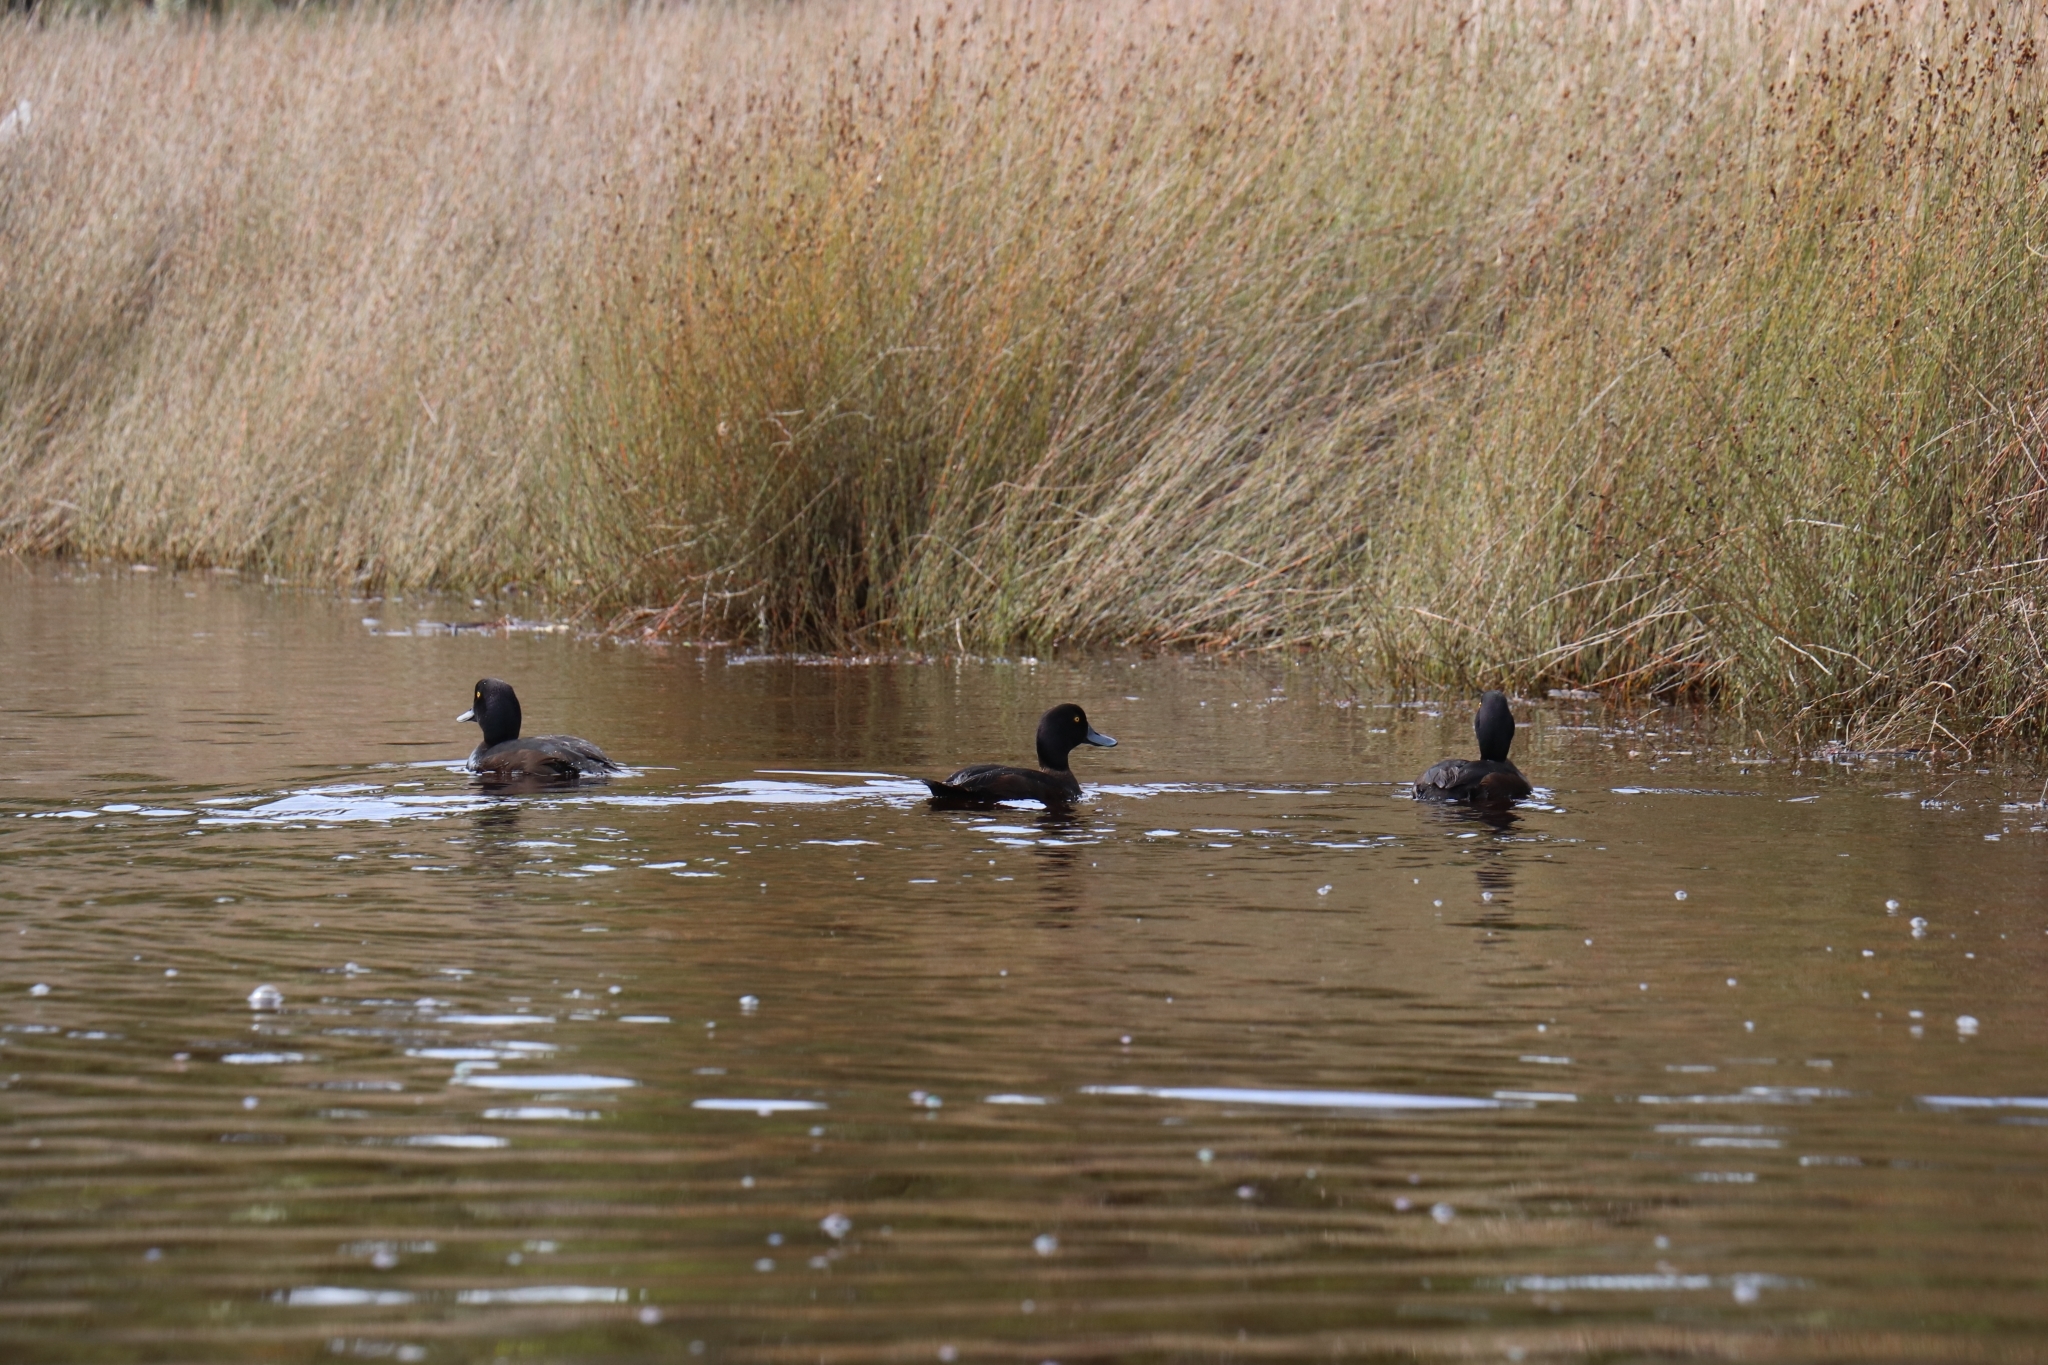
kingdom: Animalia
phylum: Chordata
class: Aves
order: Anseriformes
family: Anatidae
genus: Aythya
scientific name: Aythya novaeseelandiae
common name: New zealand scaup
